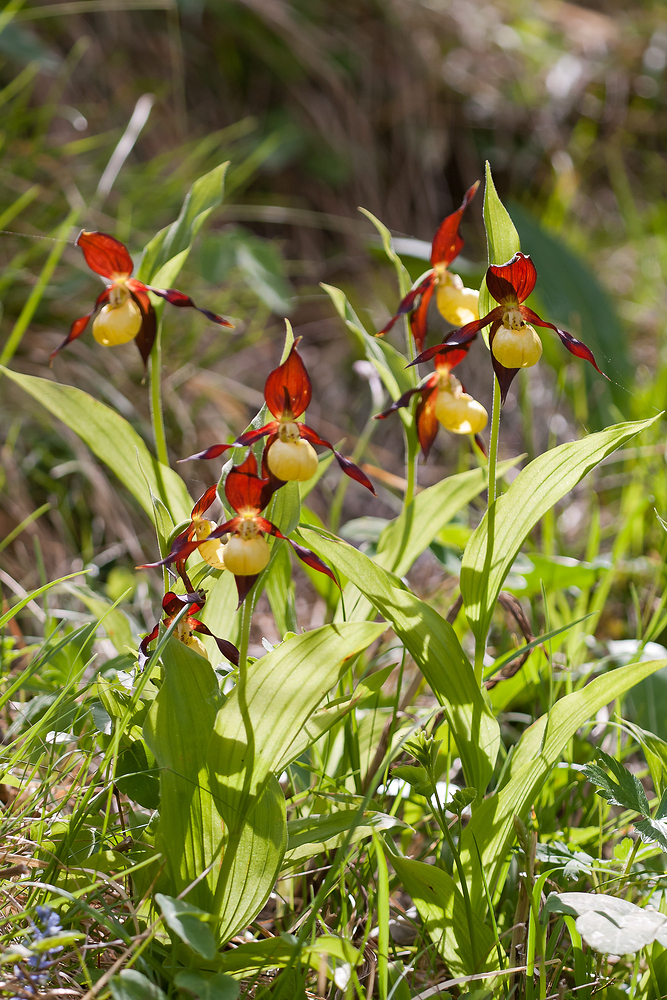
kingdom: Plantae
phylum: Tracheophyta
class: Liliopsida
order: Asparagales
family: Orchidaceae
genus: Cypripedium
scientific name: Cypripedium calceolus
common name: Lady's-slipper
